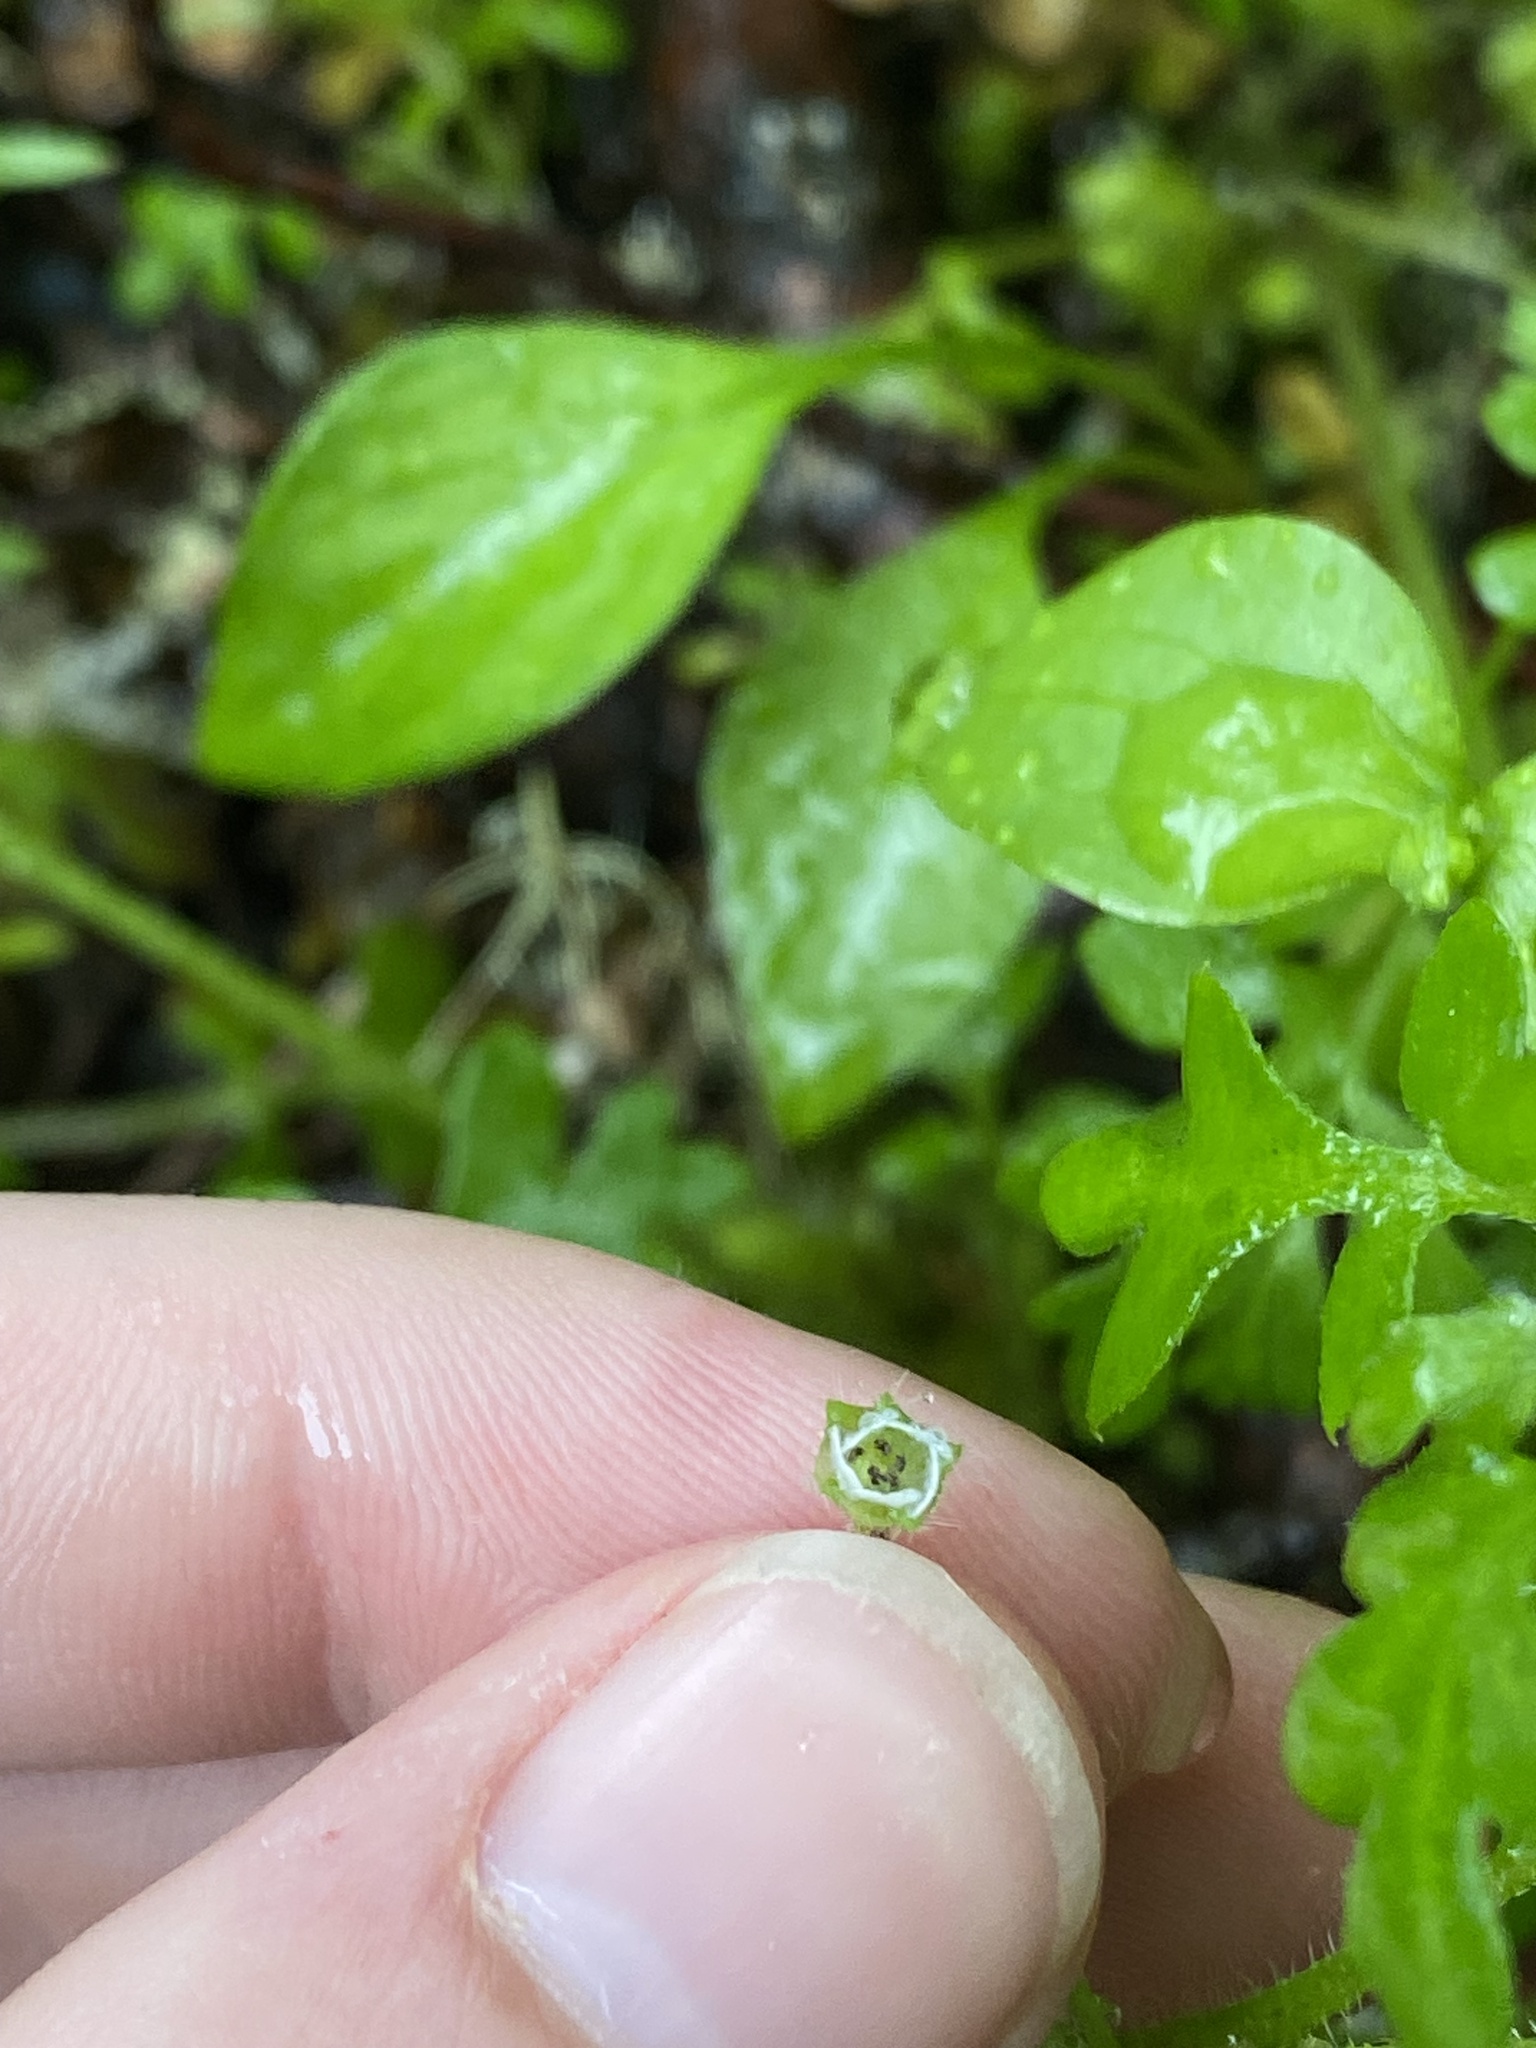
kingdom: Plantae
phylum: Tracheophyta
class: Magnoliopsida
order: Boraginales
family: Hydrophyllaceae
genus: Nemophila
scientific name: Nemophila parviflora
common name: Small-flowered baby-blue-eyes
